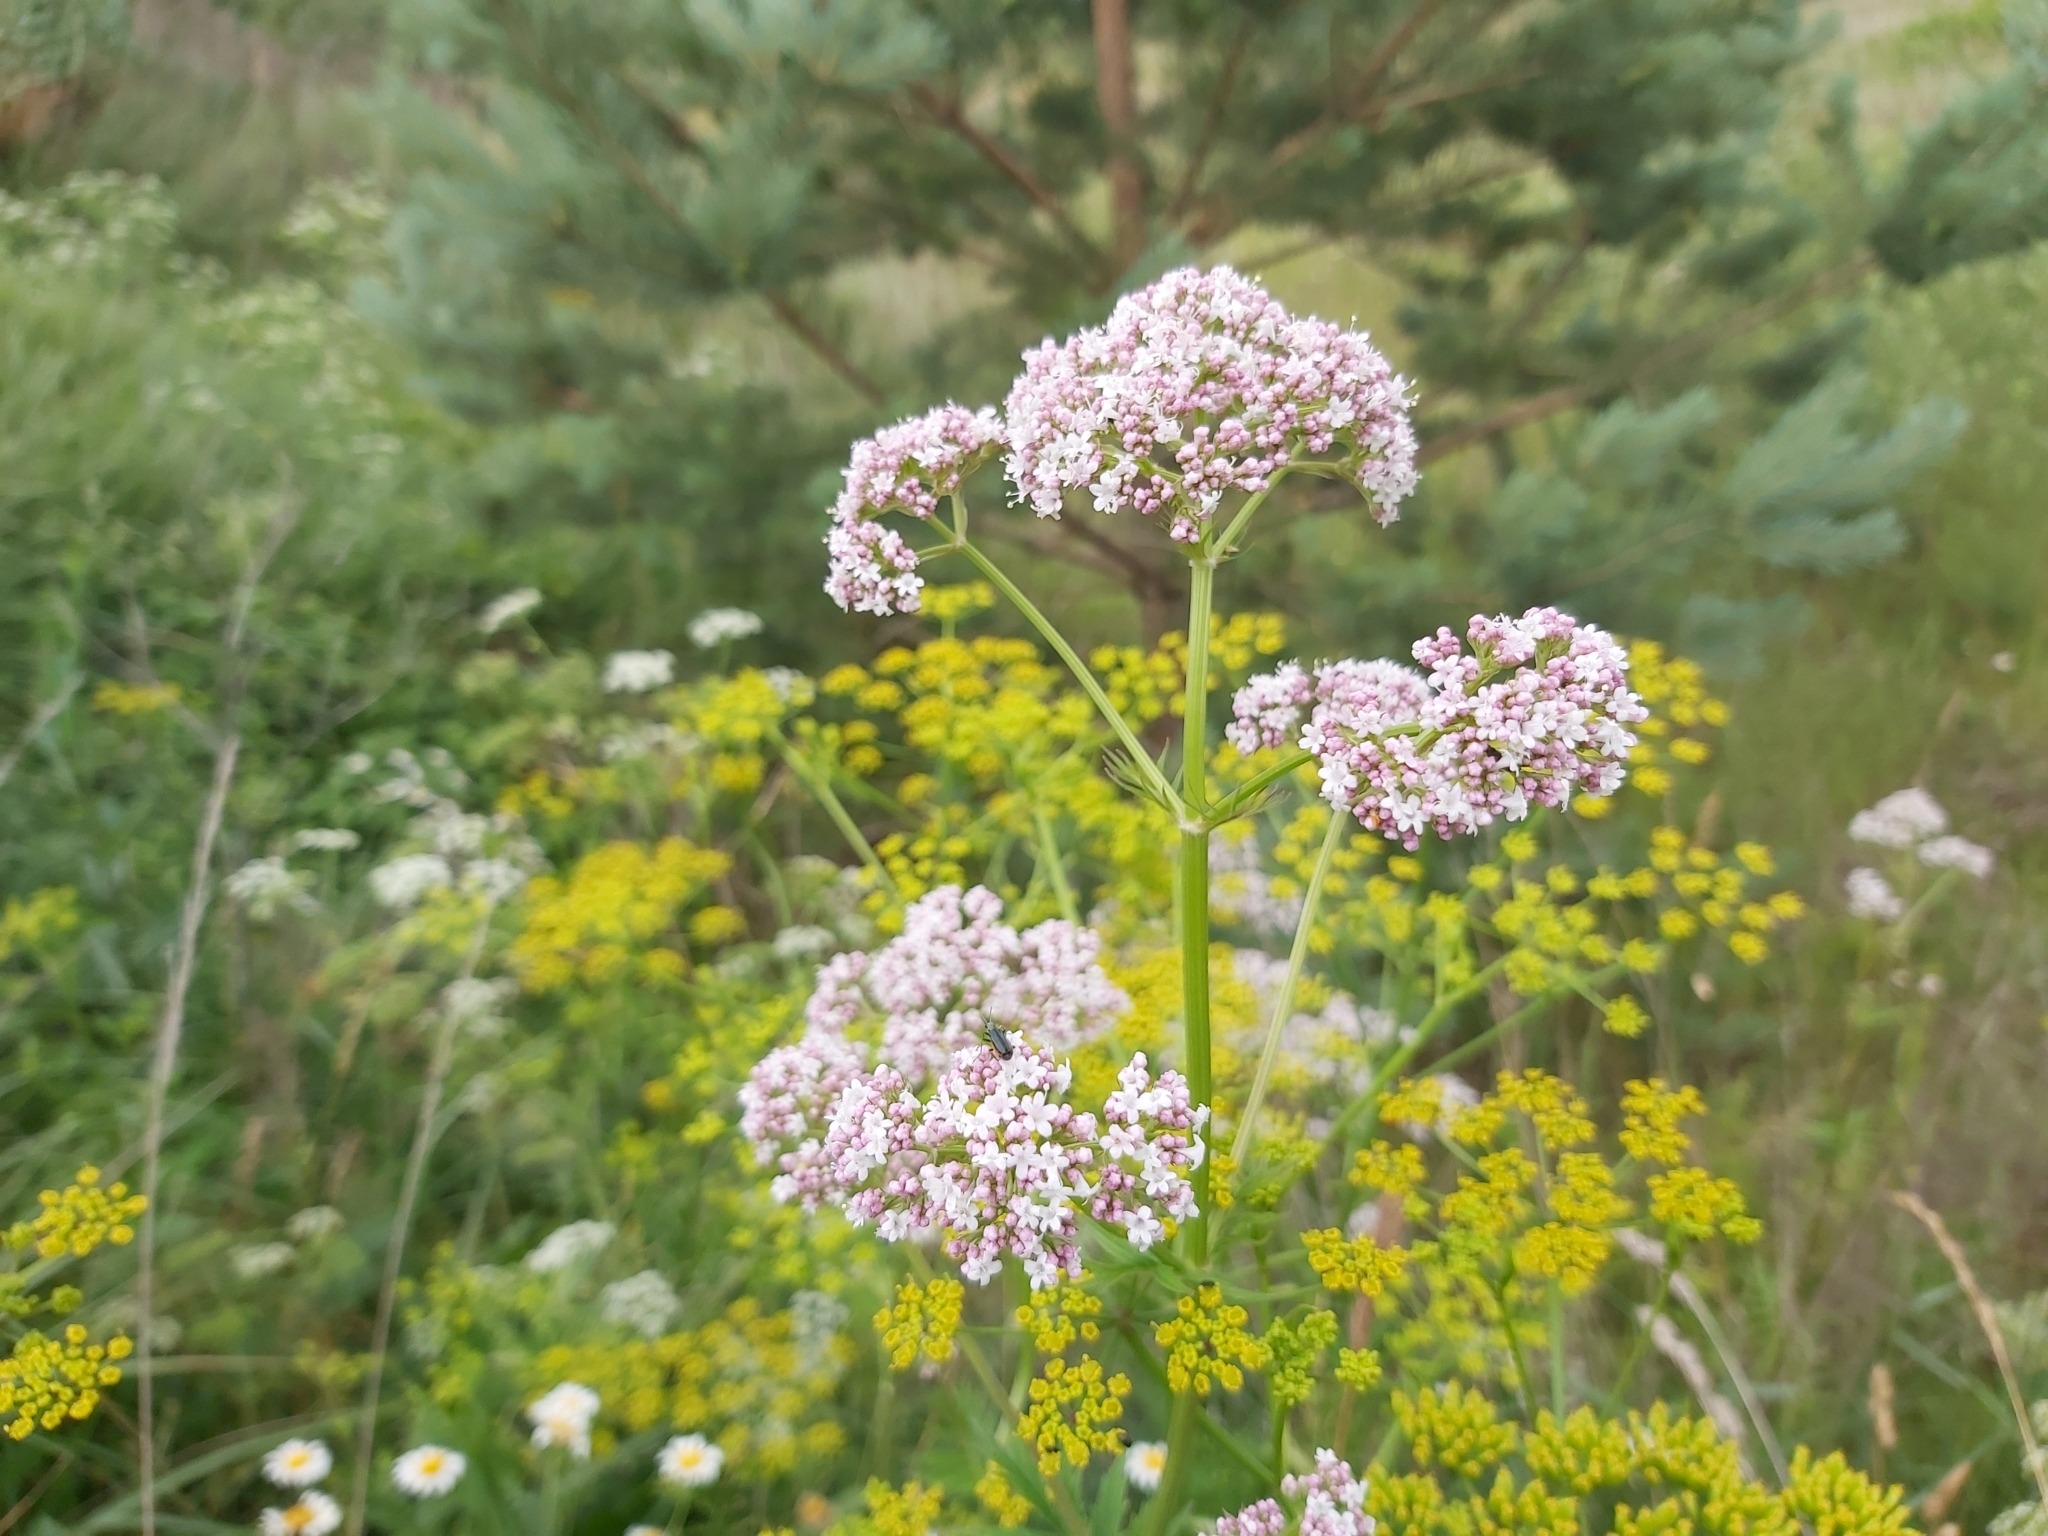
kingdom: Plantae
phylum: Tracheophyta
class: Magnoliopsida
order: Dipsacales
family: Caprifoliaceae
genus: Valeriana
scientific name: Valeriana officinalis
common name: Common valerian
